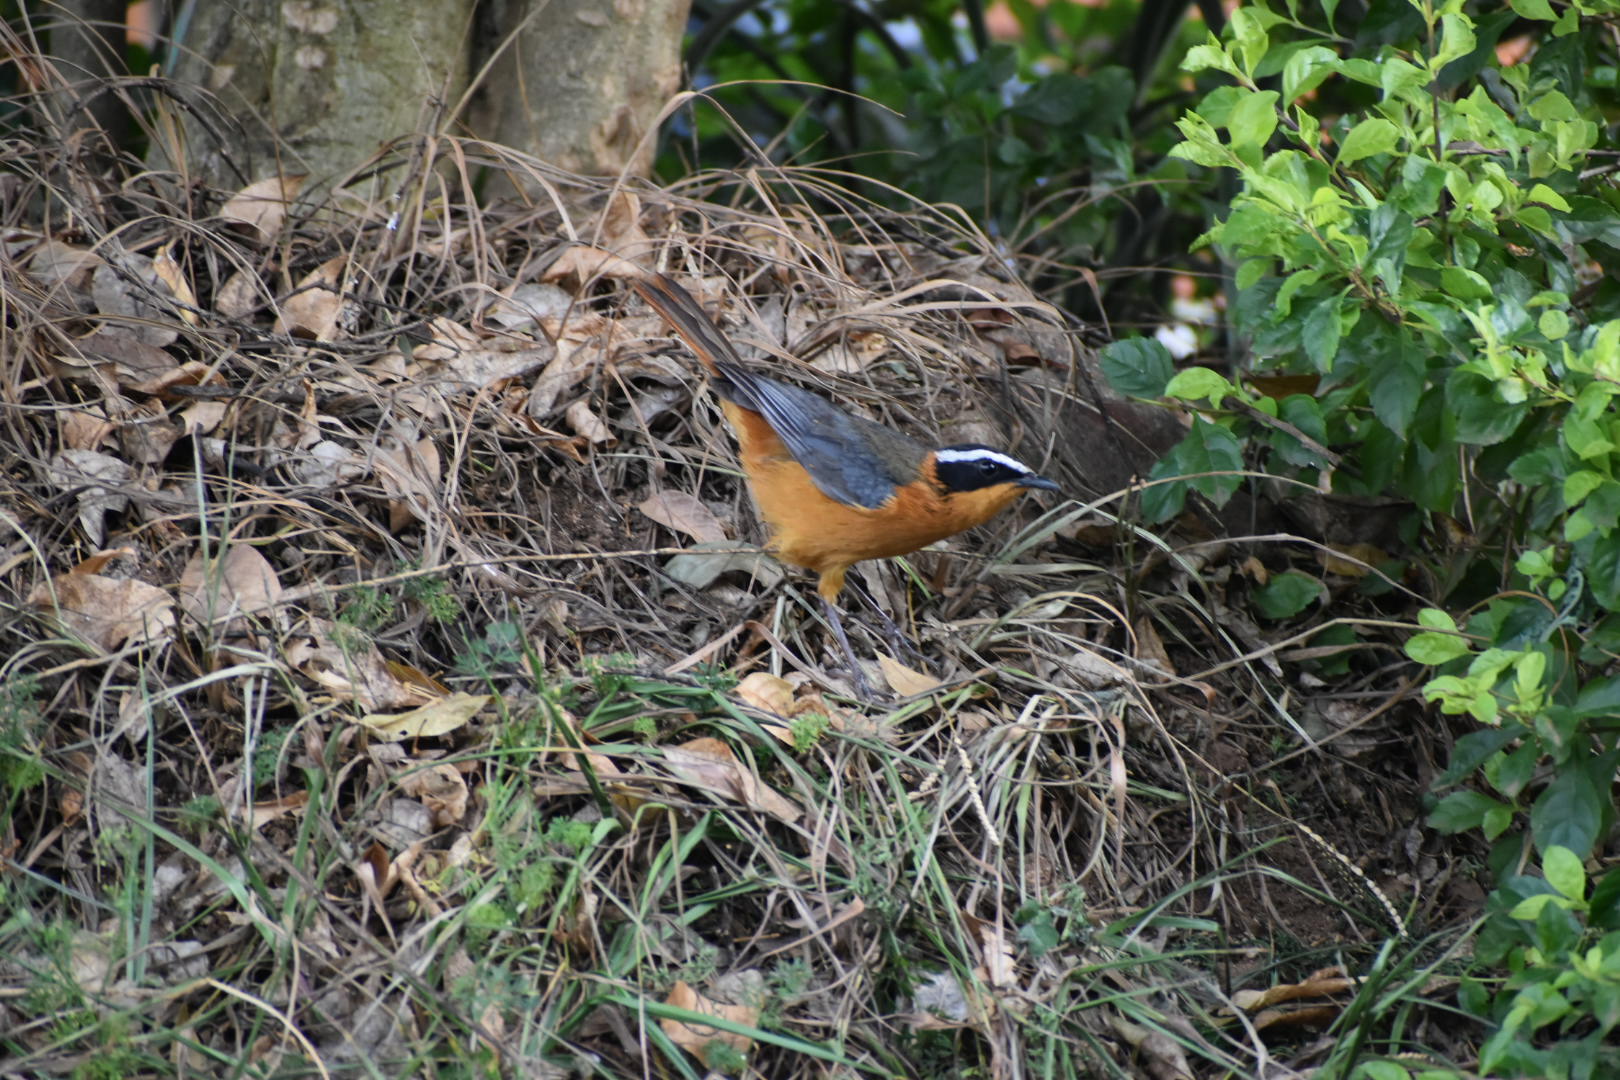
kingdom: Animalia
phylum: Chordata
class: Aves
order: Passeriformes
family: Muscicapidae
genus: Cossypha
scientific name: Cossypha heuglini
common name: White-browed robin-chat
